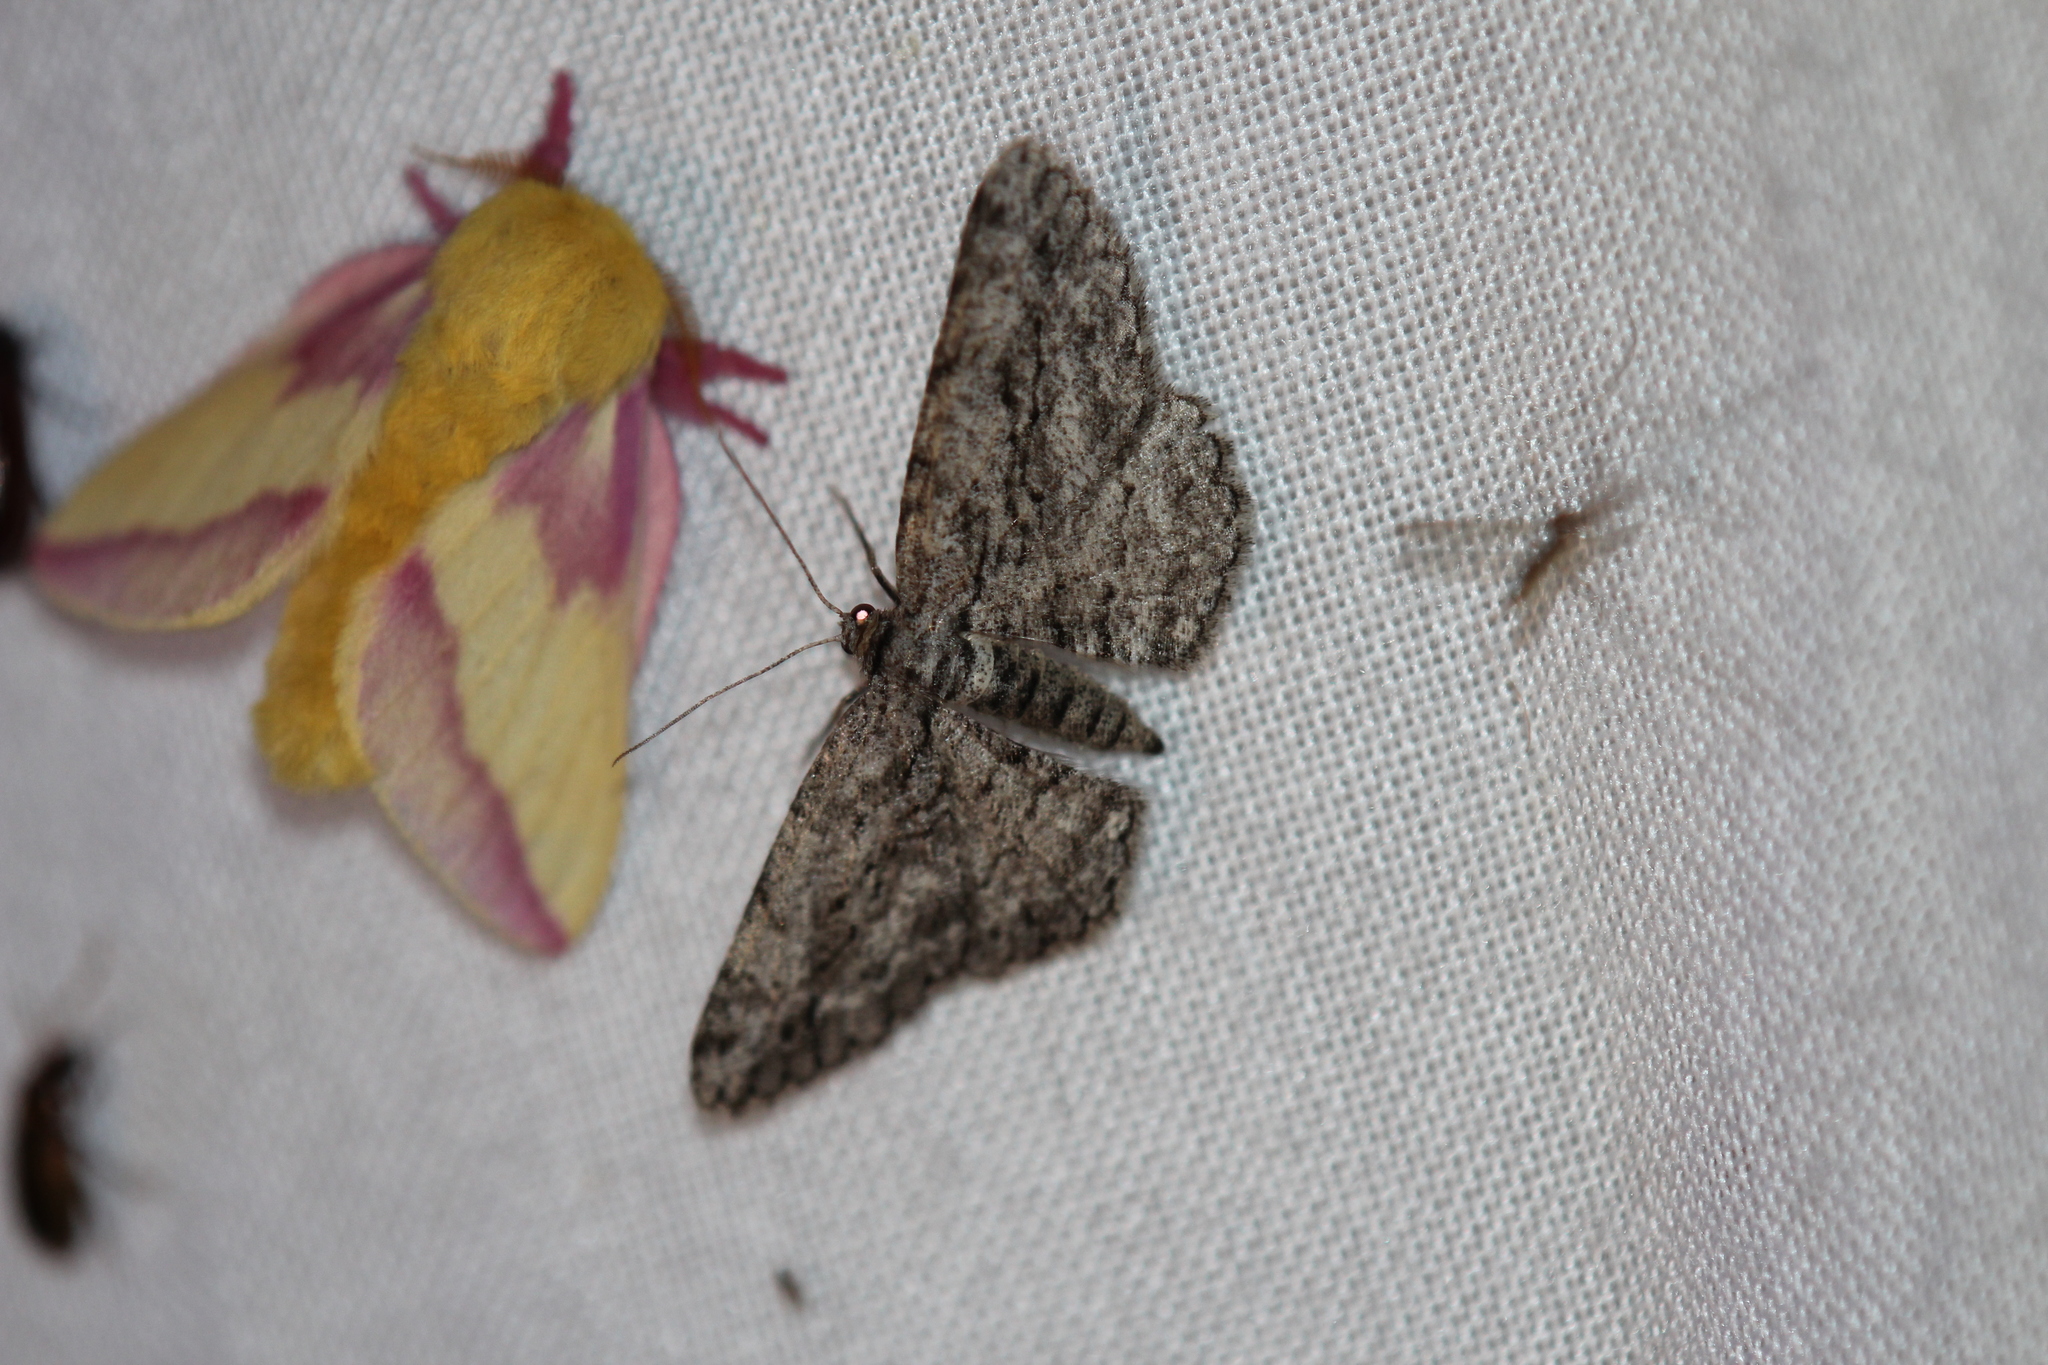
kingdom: Animalia
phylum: Arthropoda
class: Insecta
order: Lepidoptera
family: Saturniidae
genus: Dryocampa
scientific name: Dryocampa rubicunda
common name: Rosy maple moth
